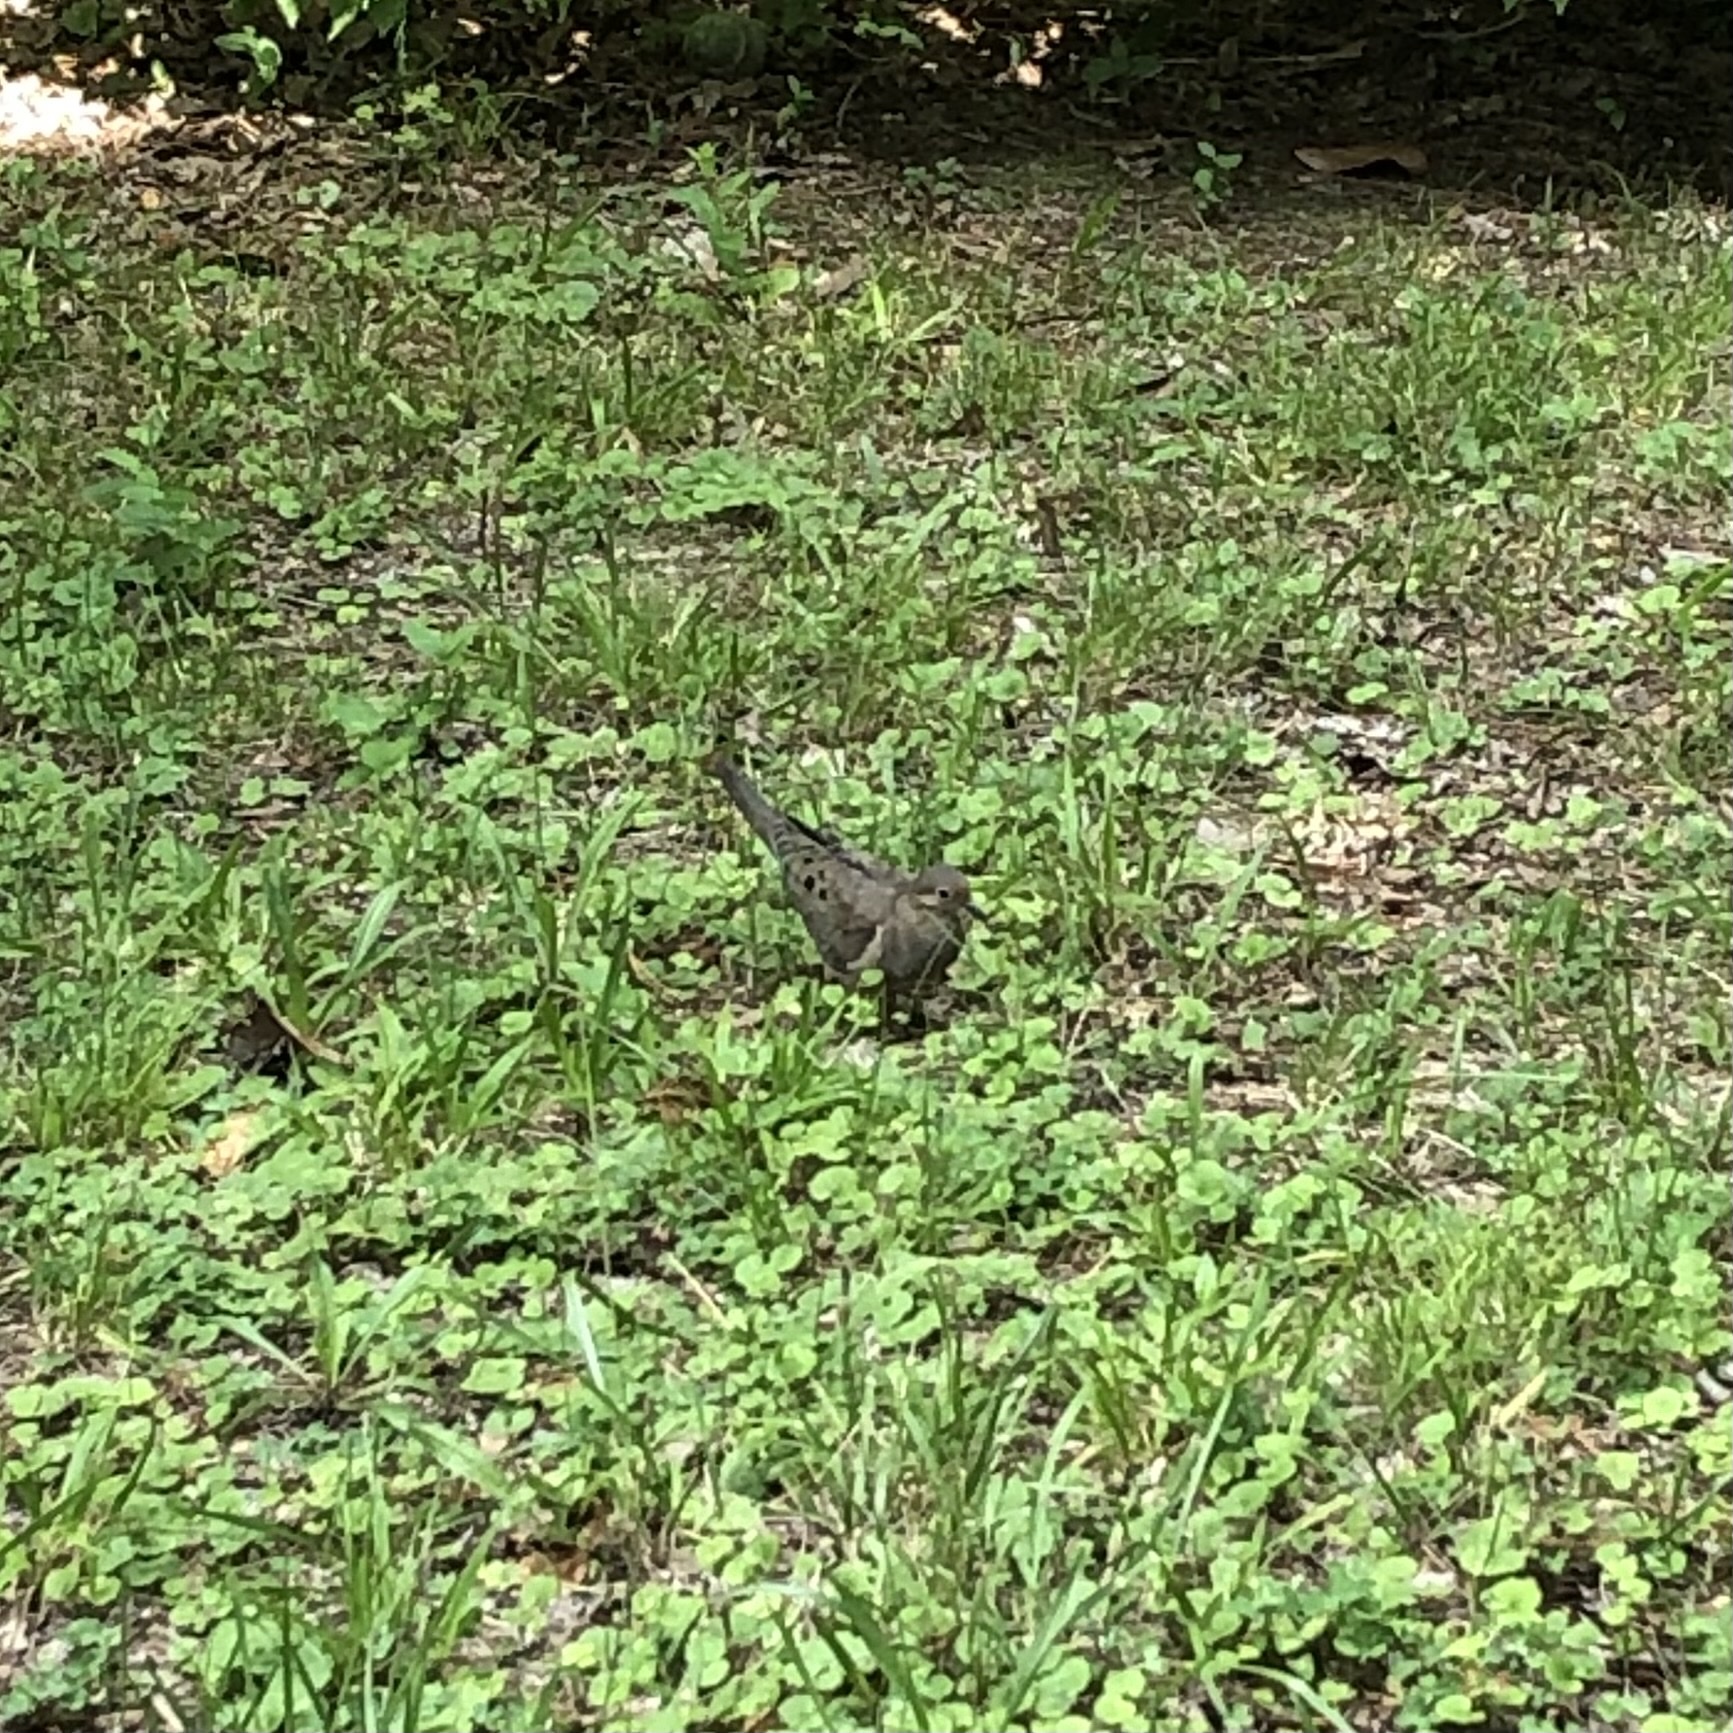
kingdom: Animalia
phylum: Chordata
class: Aves
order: Columbiformes
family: Columbidae
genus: Zenaida
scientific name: Zenaida macroura
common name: Mourning dove
